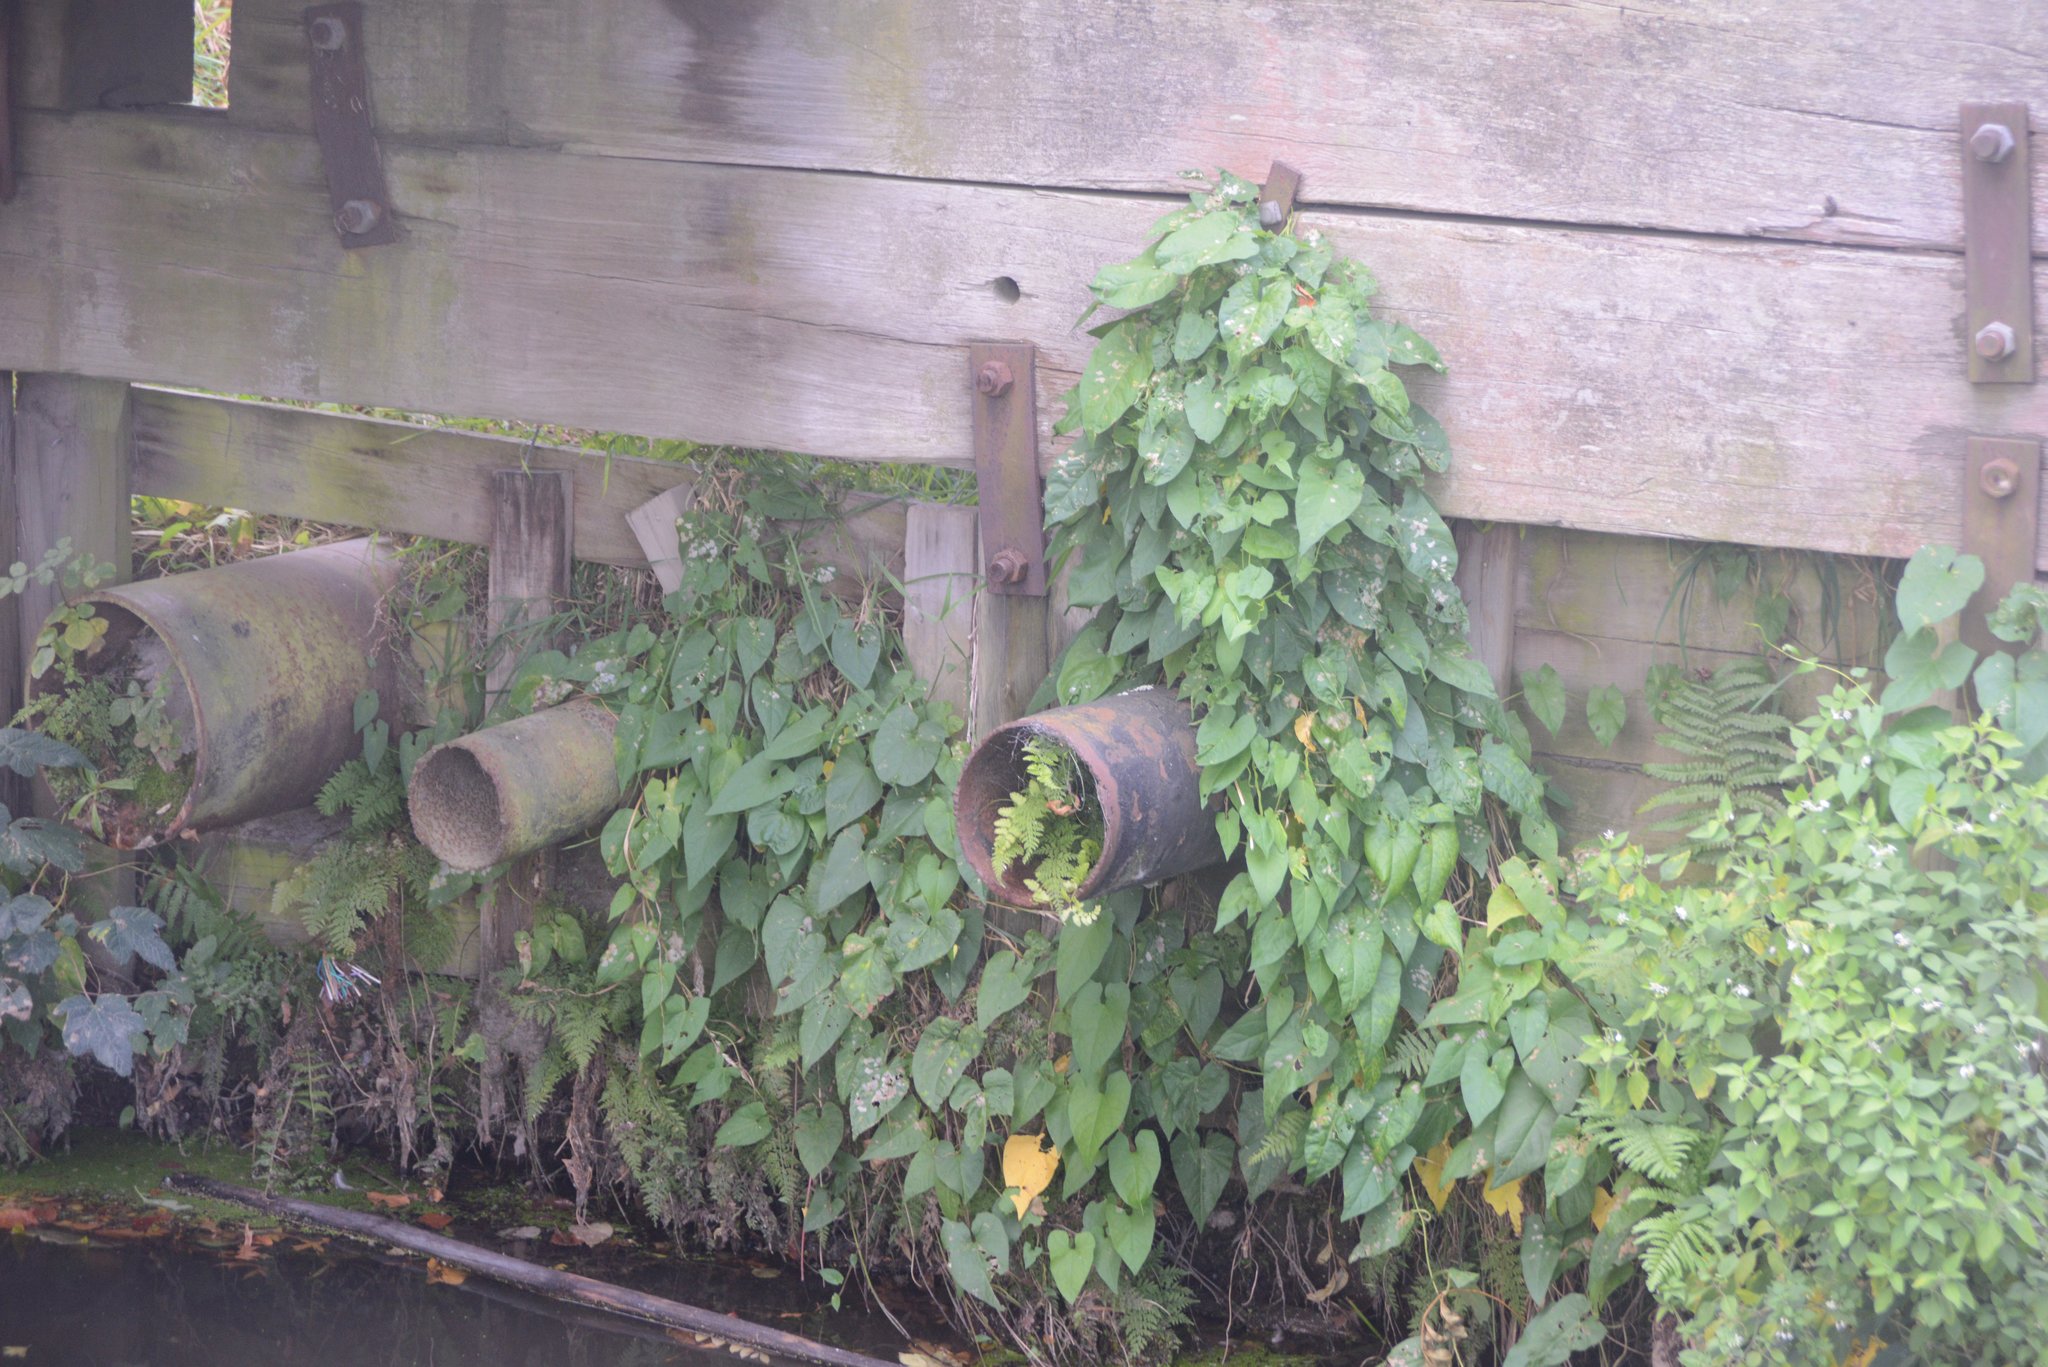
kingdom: Plantae
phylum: Tracheophyta
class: Magnoliopsida
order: Solanales
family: Convolvulaceae
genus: Calystegia
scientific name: Calystegia silvatica
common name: Large bindweed
